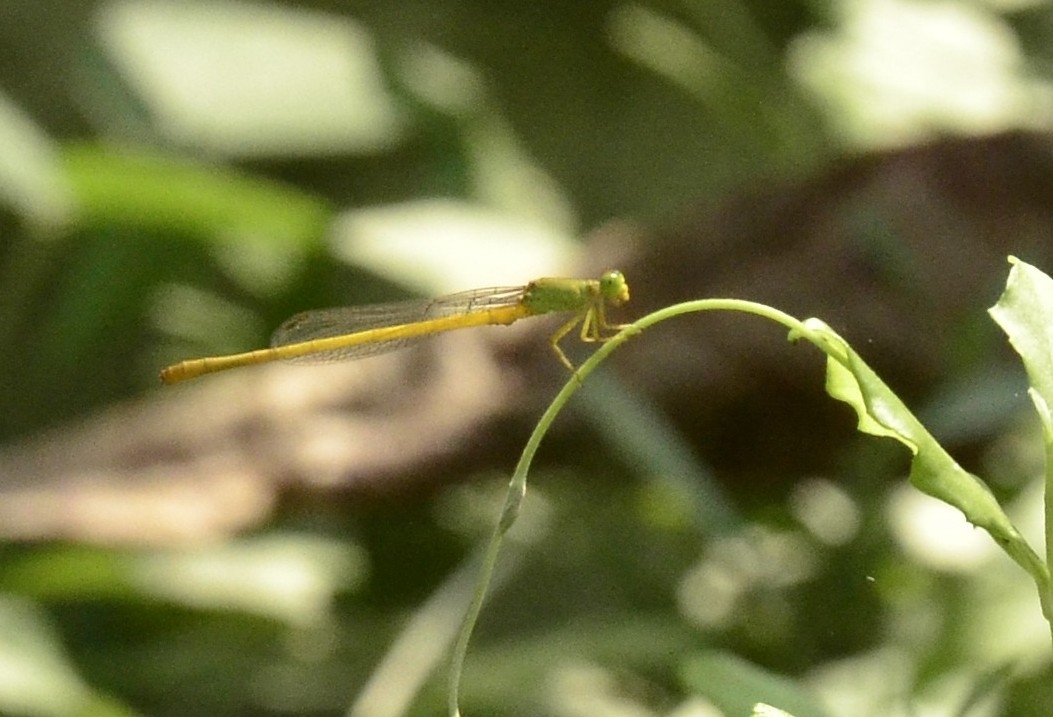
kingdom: Animalia
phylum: Arthropoda
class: Insecta
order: Odonata
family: Coenagrionidae
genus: Ceriagrion
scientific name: Ceriagrion coromandelianum
